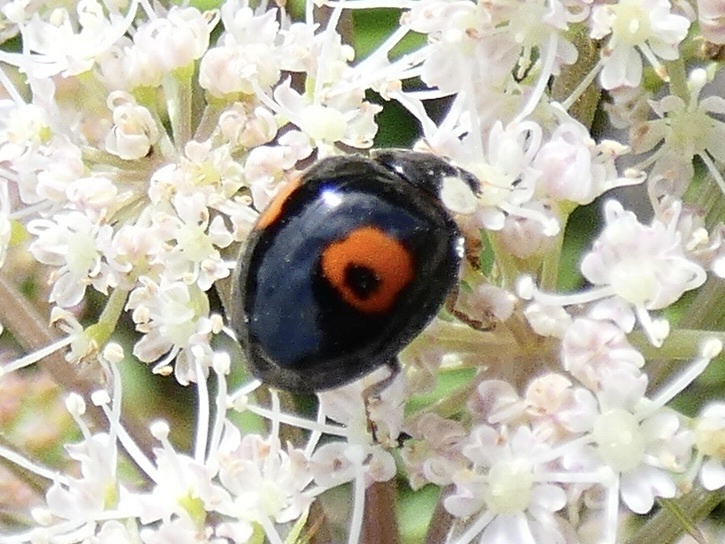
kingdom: Animalia
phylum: Arthropoda
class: Insecta
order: Coleoptera
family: Coccinellidae
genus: Harmonia
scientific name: Harmonia axyridis
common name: Harlequin ladybird
